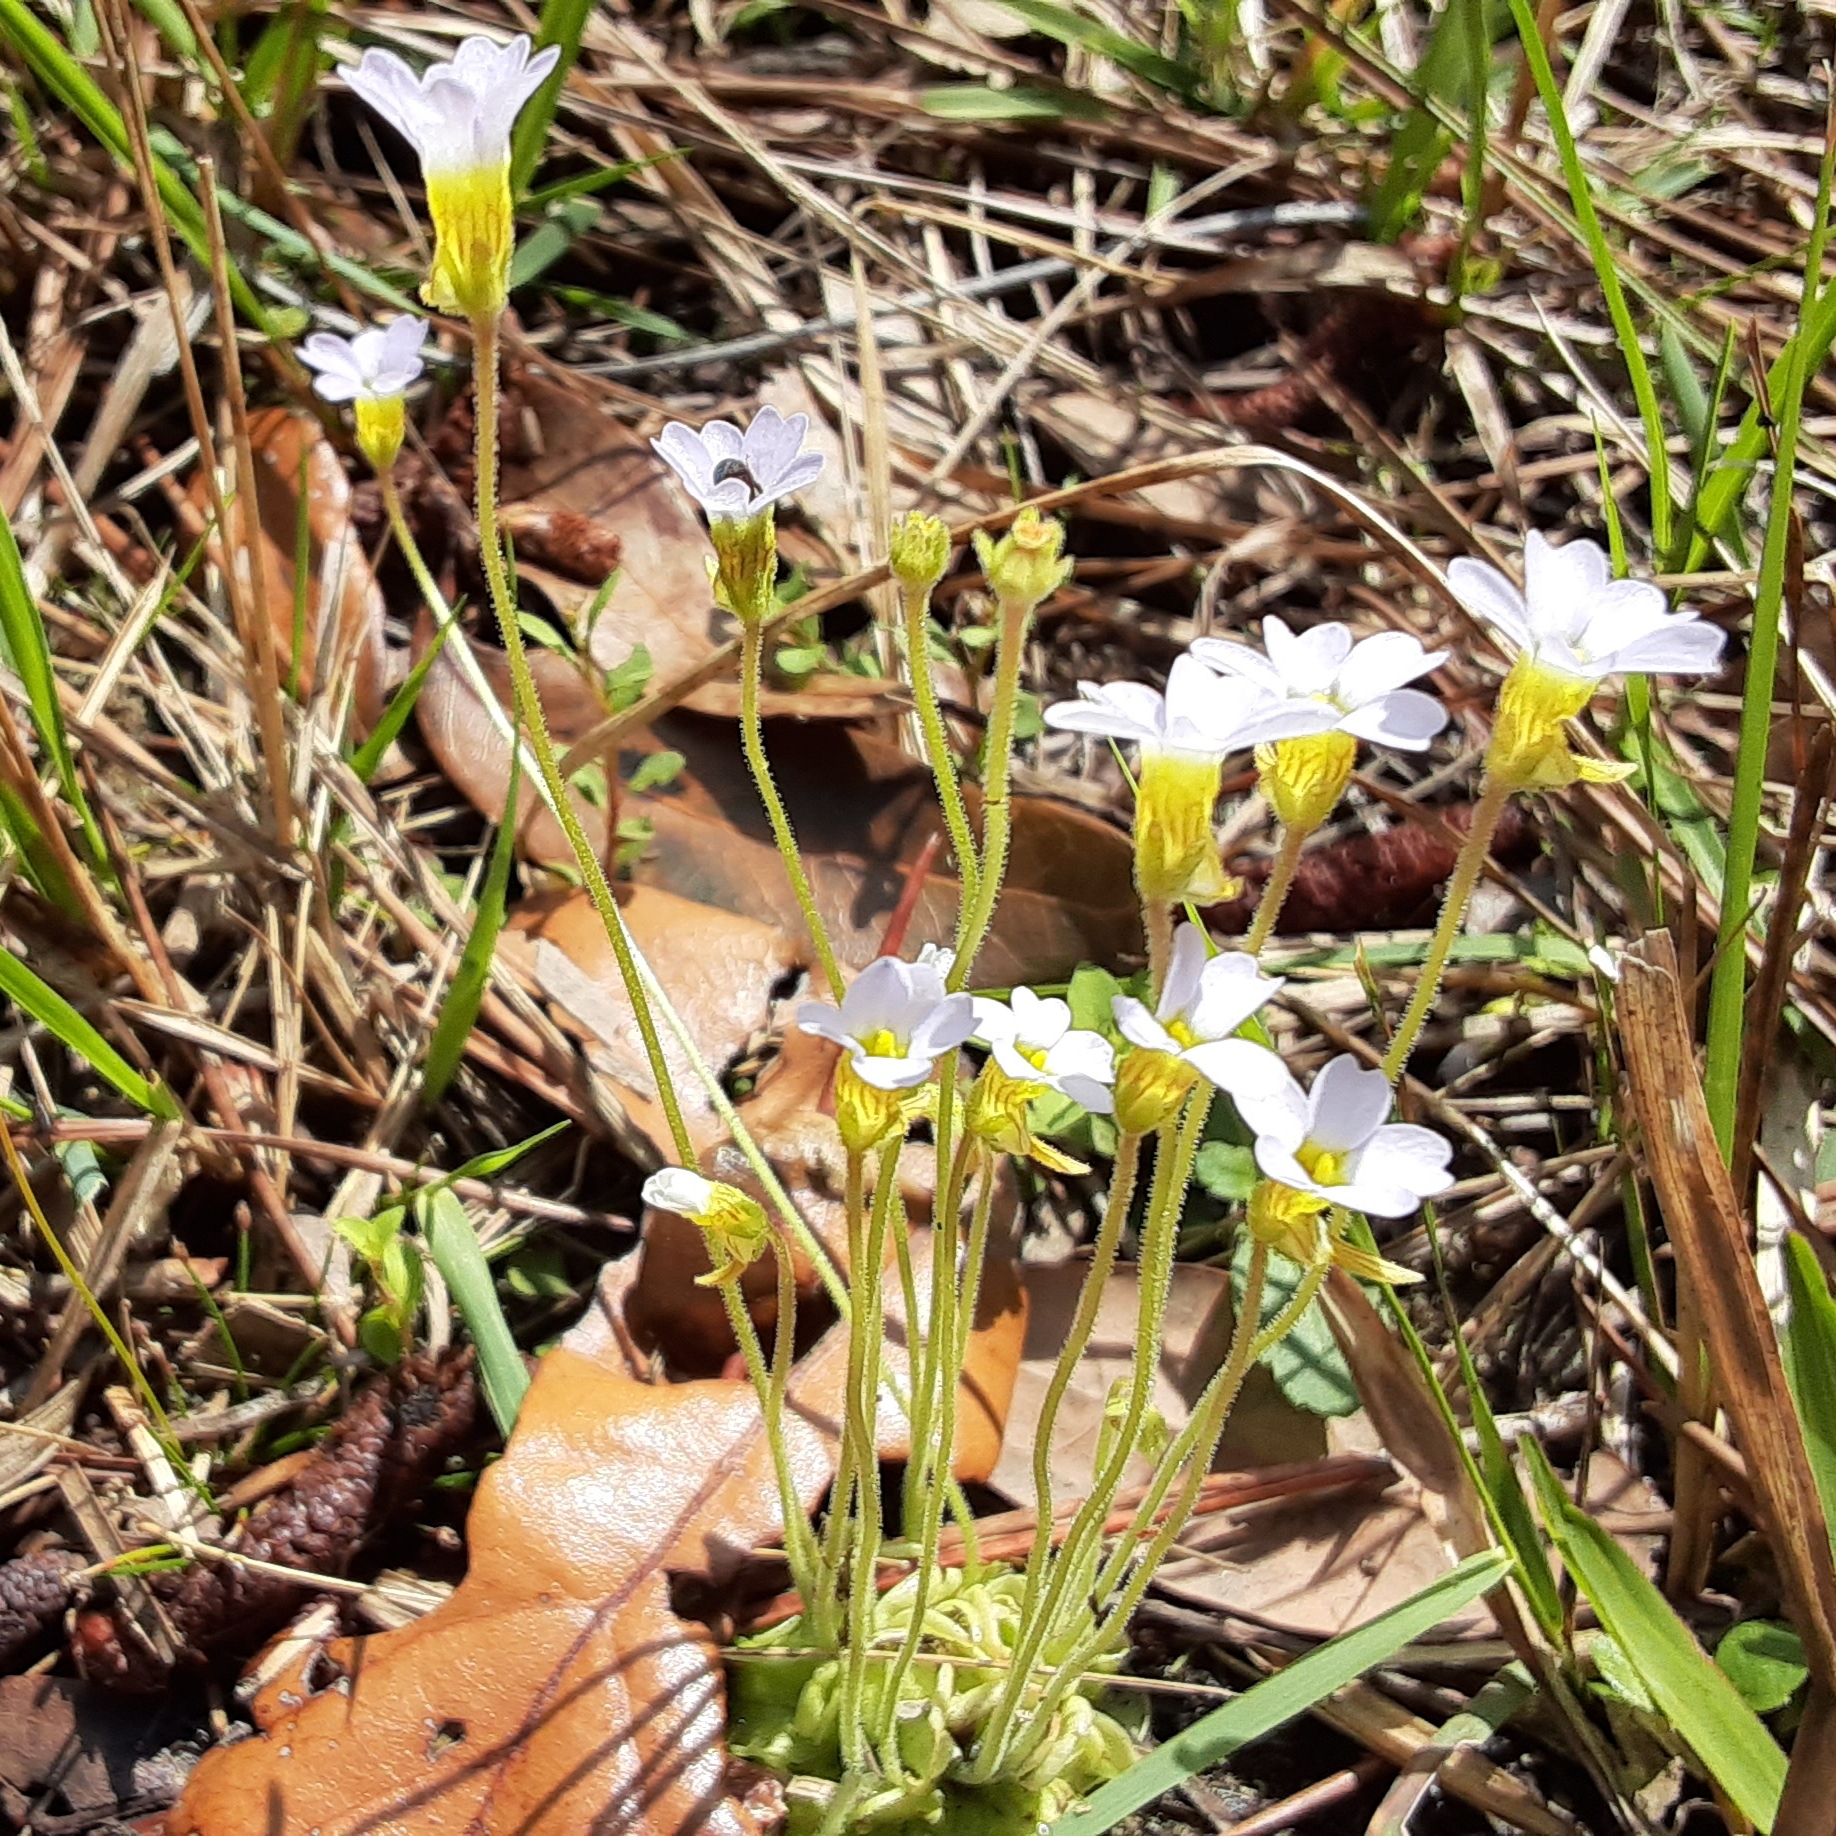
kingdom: Plantae
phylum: Tracheophyta
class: Magnoliopsida
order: Lamiales
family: Lentibulariaceae
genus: Pinguicula
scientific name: Pinguicula pumila
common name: Small butterwort
